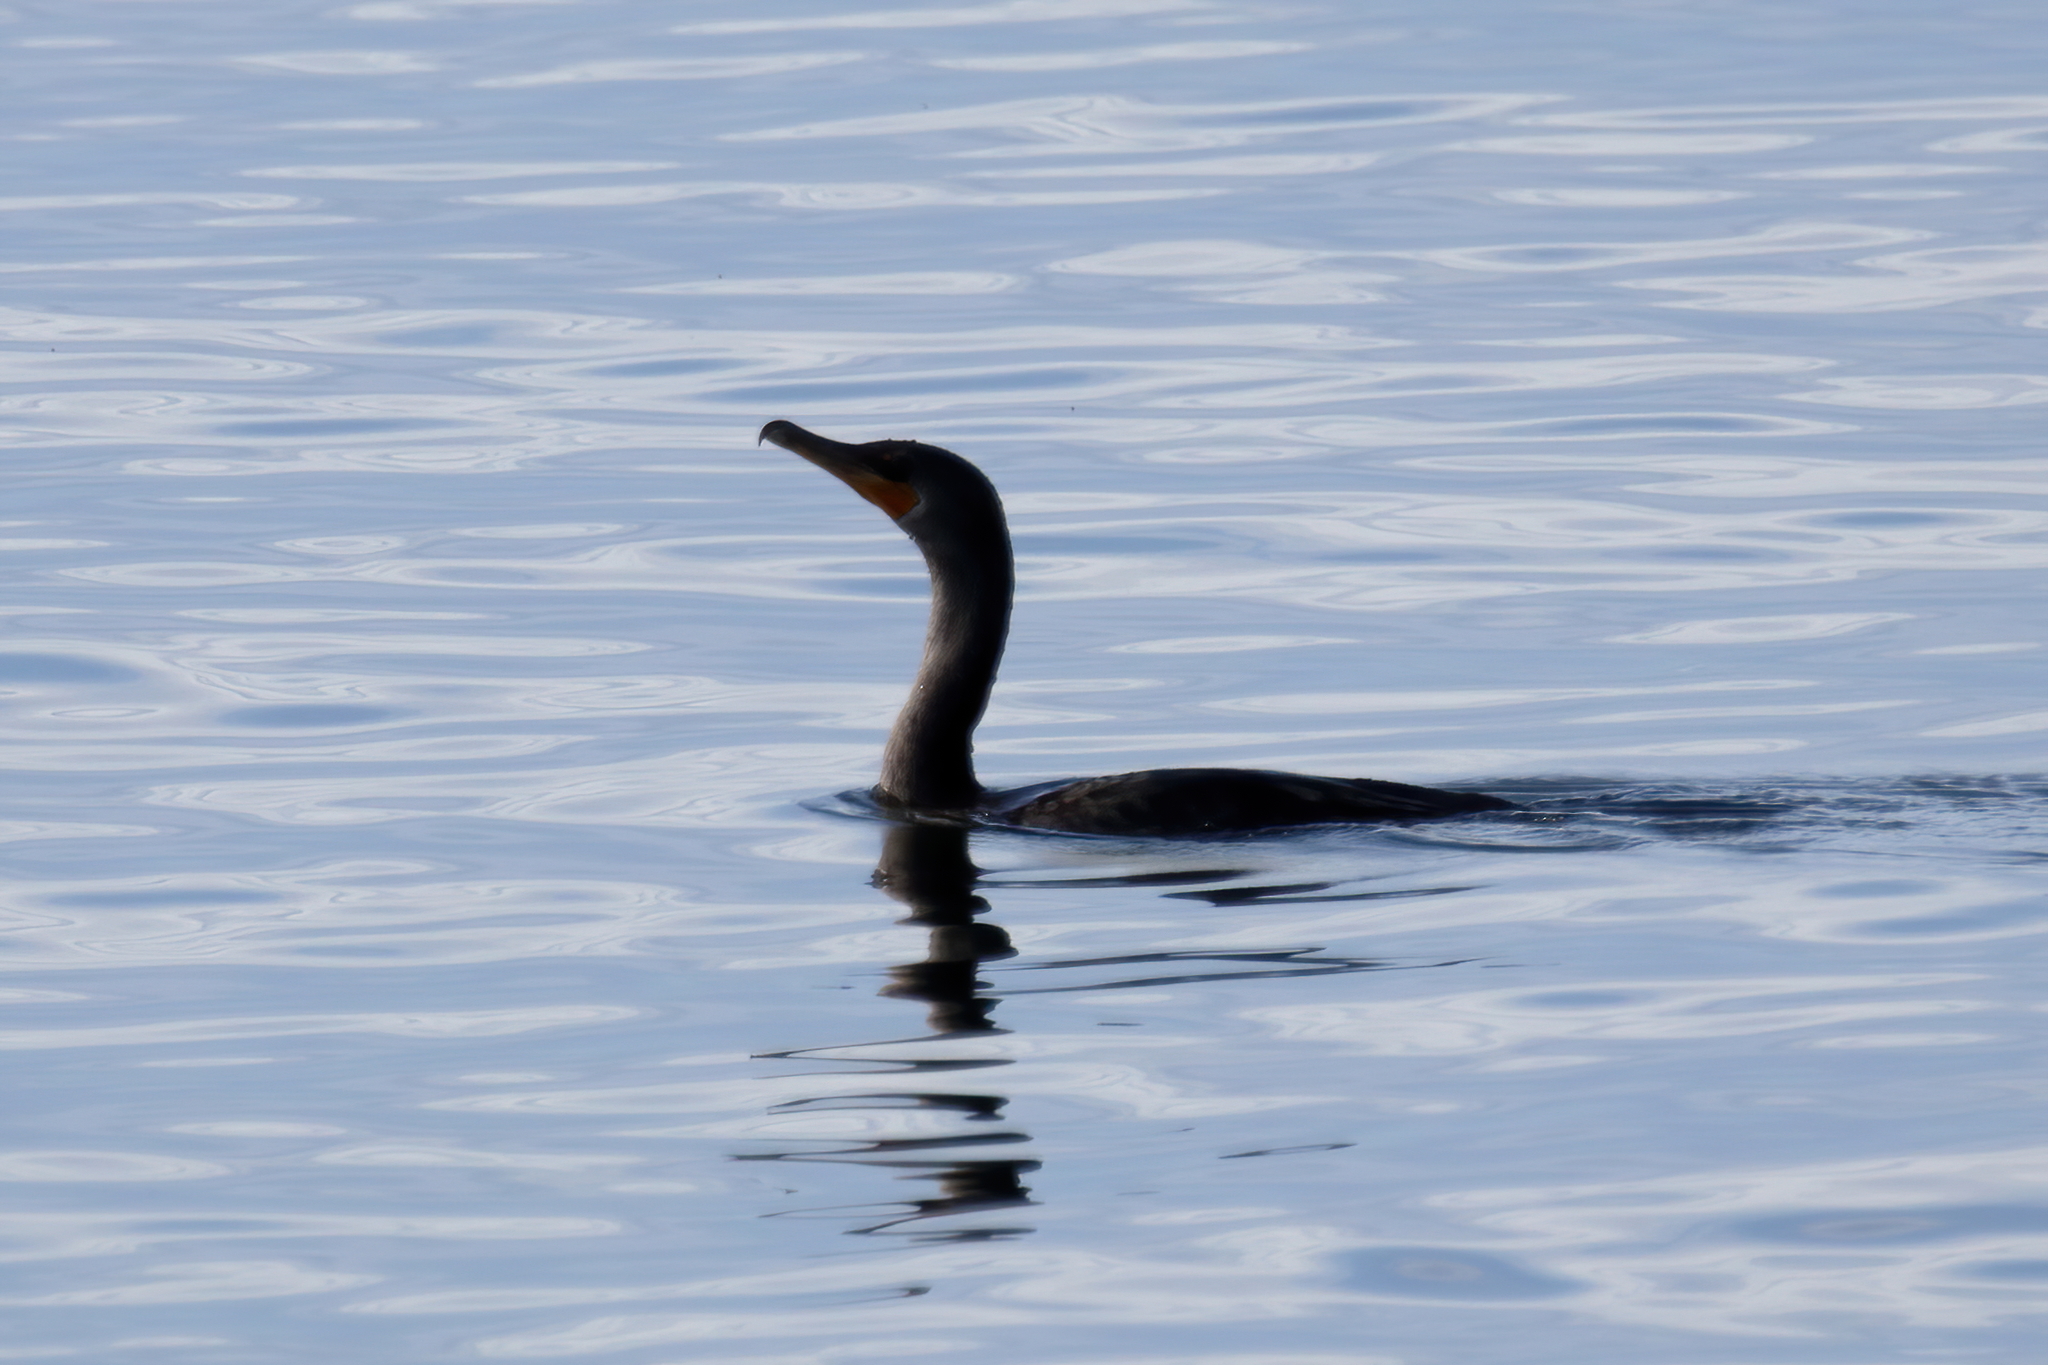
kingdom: Animalia
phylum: Chordata
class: Aves
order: Suliformes
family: Phalacrocoracidae
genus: Phalacrocorax
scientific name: Phalacrocorax auritus
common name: Double-crested cormorant
